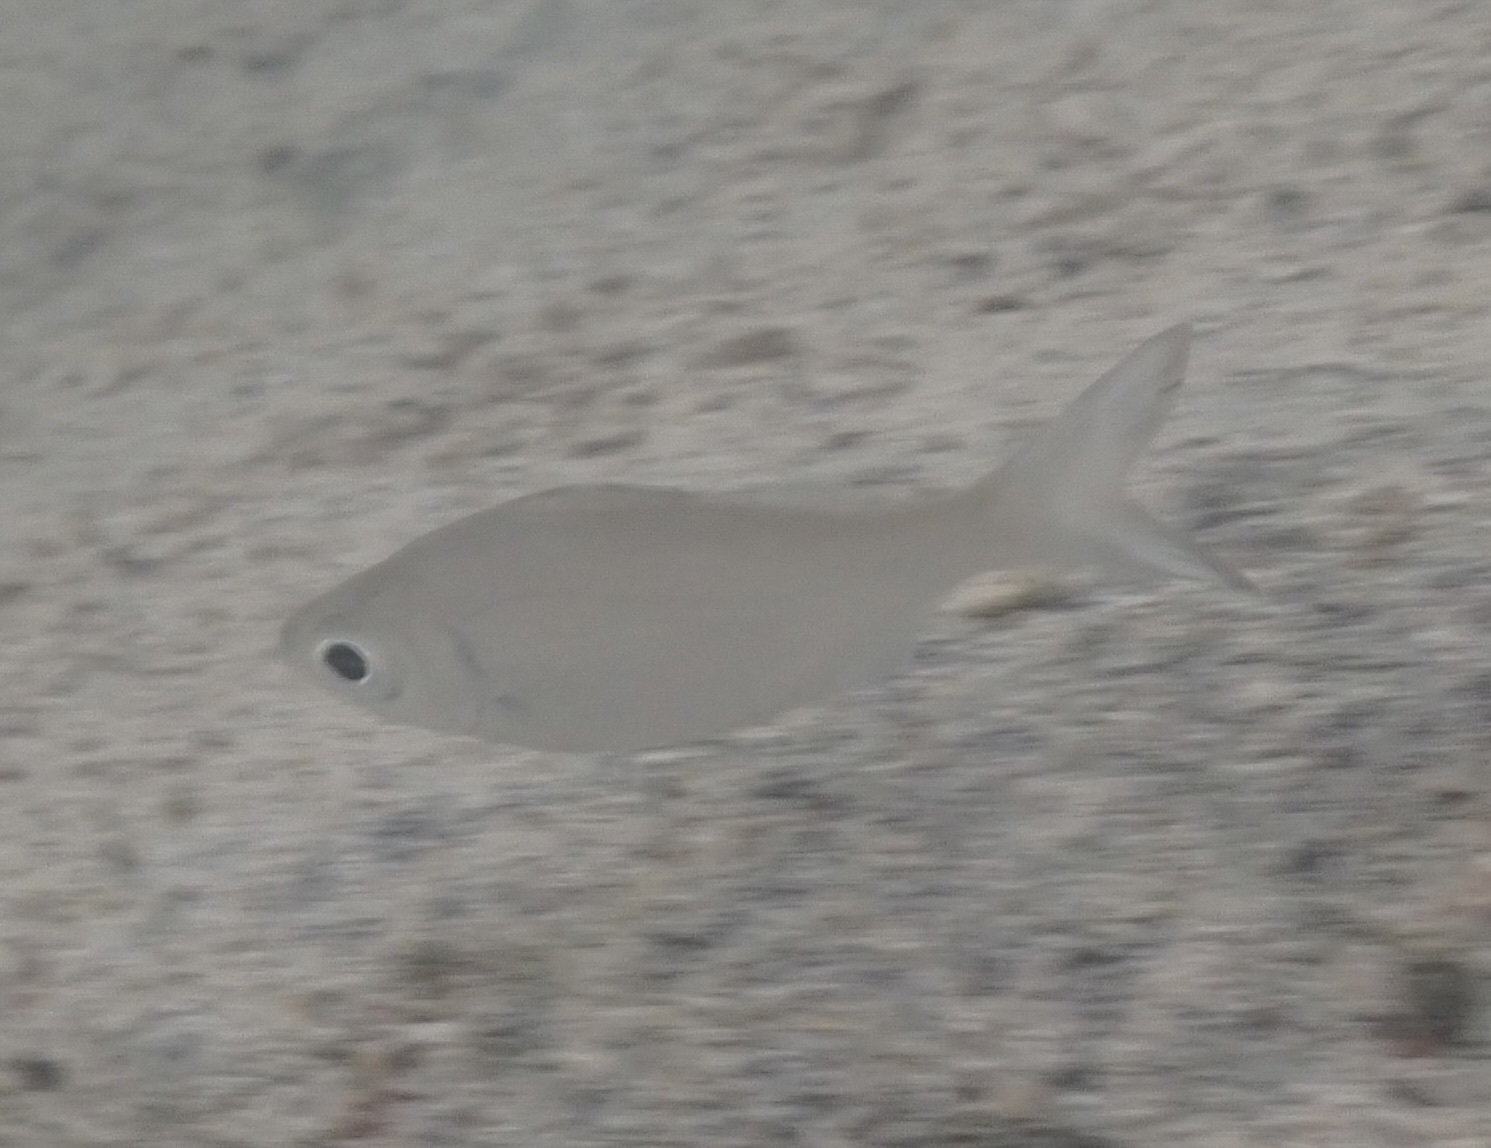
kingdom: Animalia
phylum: Chordata
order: Perciformes
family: Kuhliidae
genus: Kuhlia
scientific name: Kuhlia xenura
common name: Hawaiian flagtail
